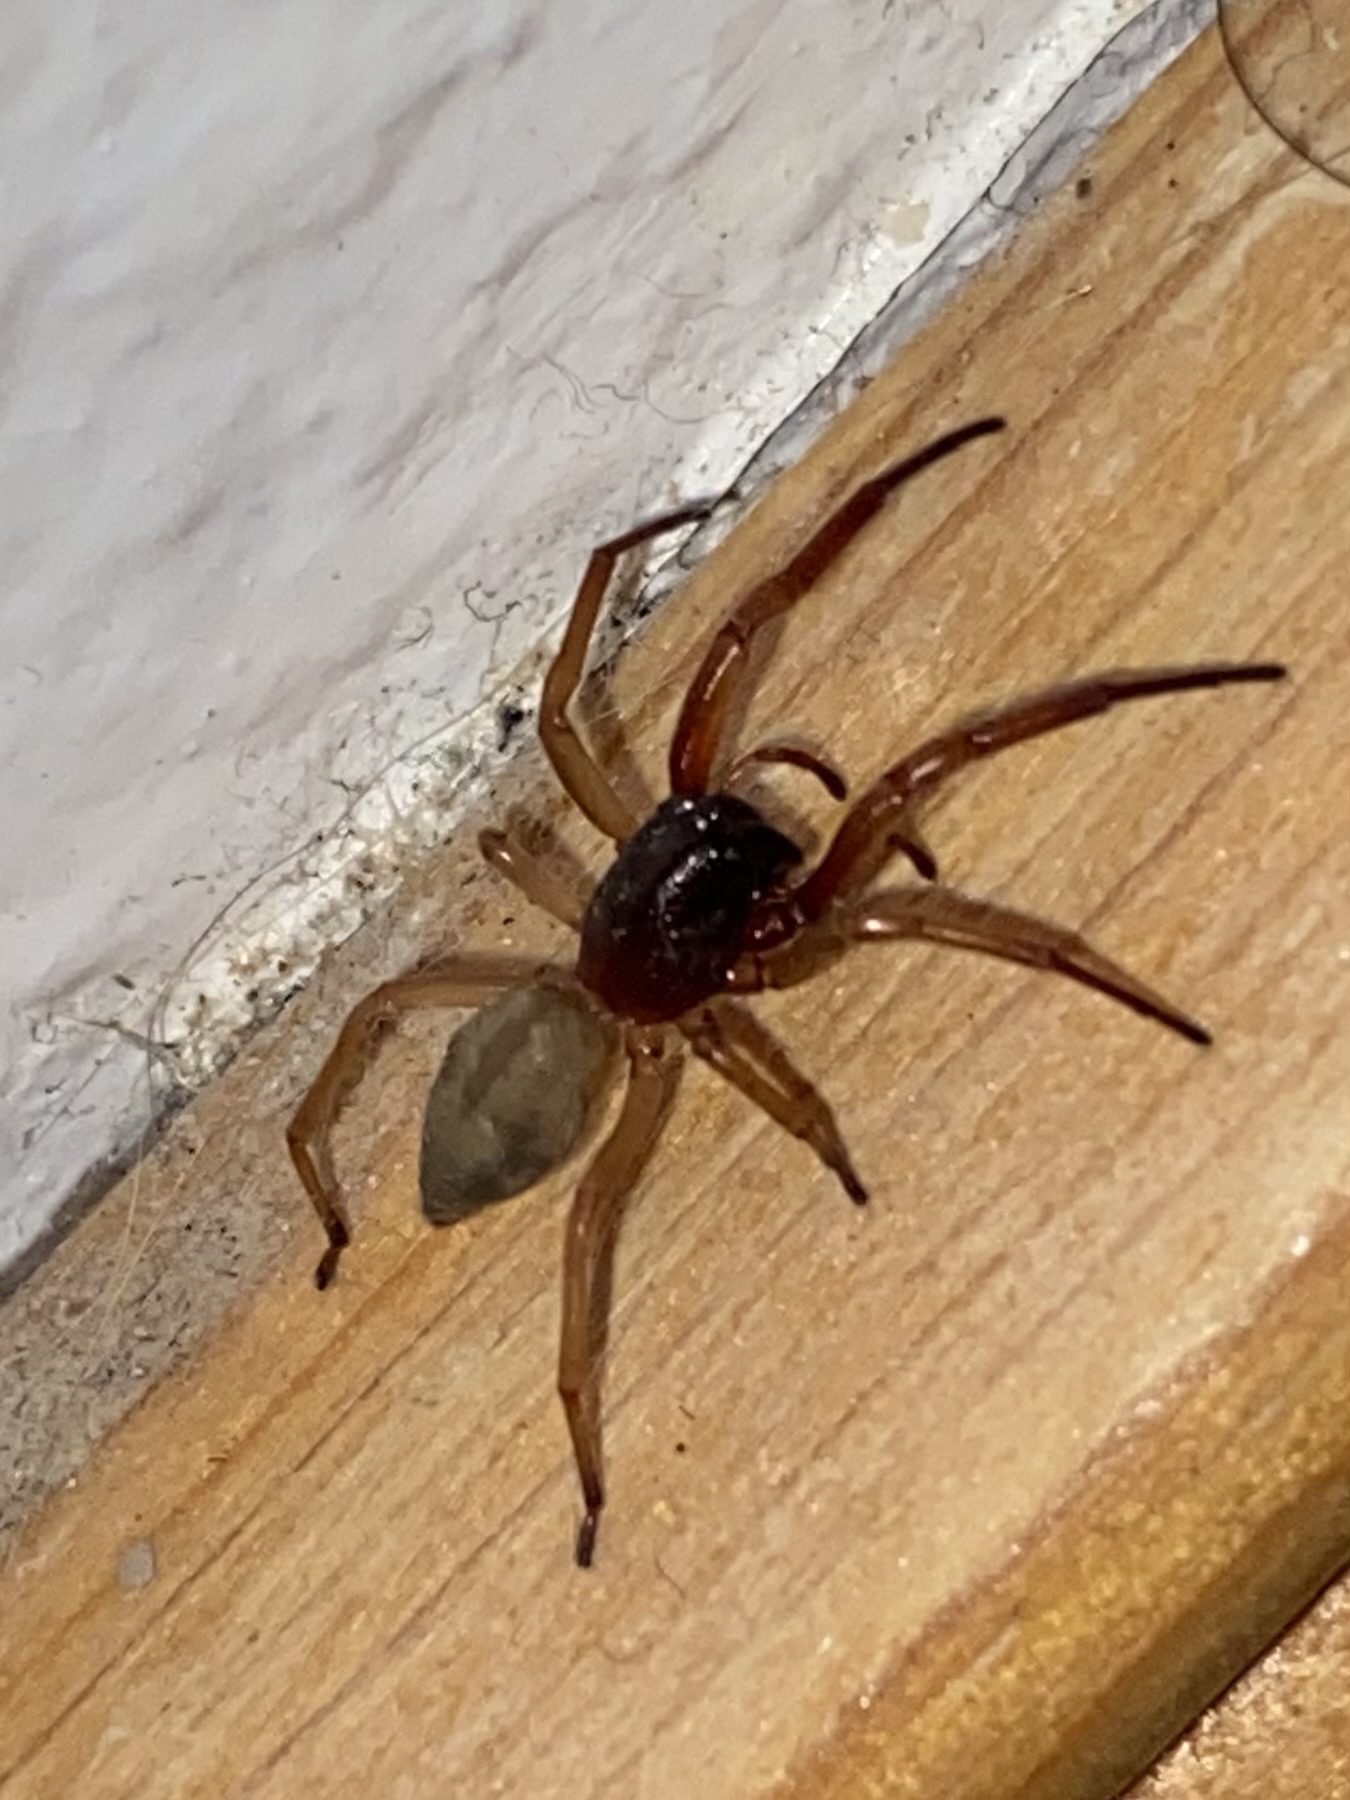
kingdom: Animalia
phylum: Arthropoda
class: Arachnida
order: Araneae
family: Trachelidae
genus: Trachelas
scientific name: Trachelas
